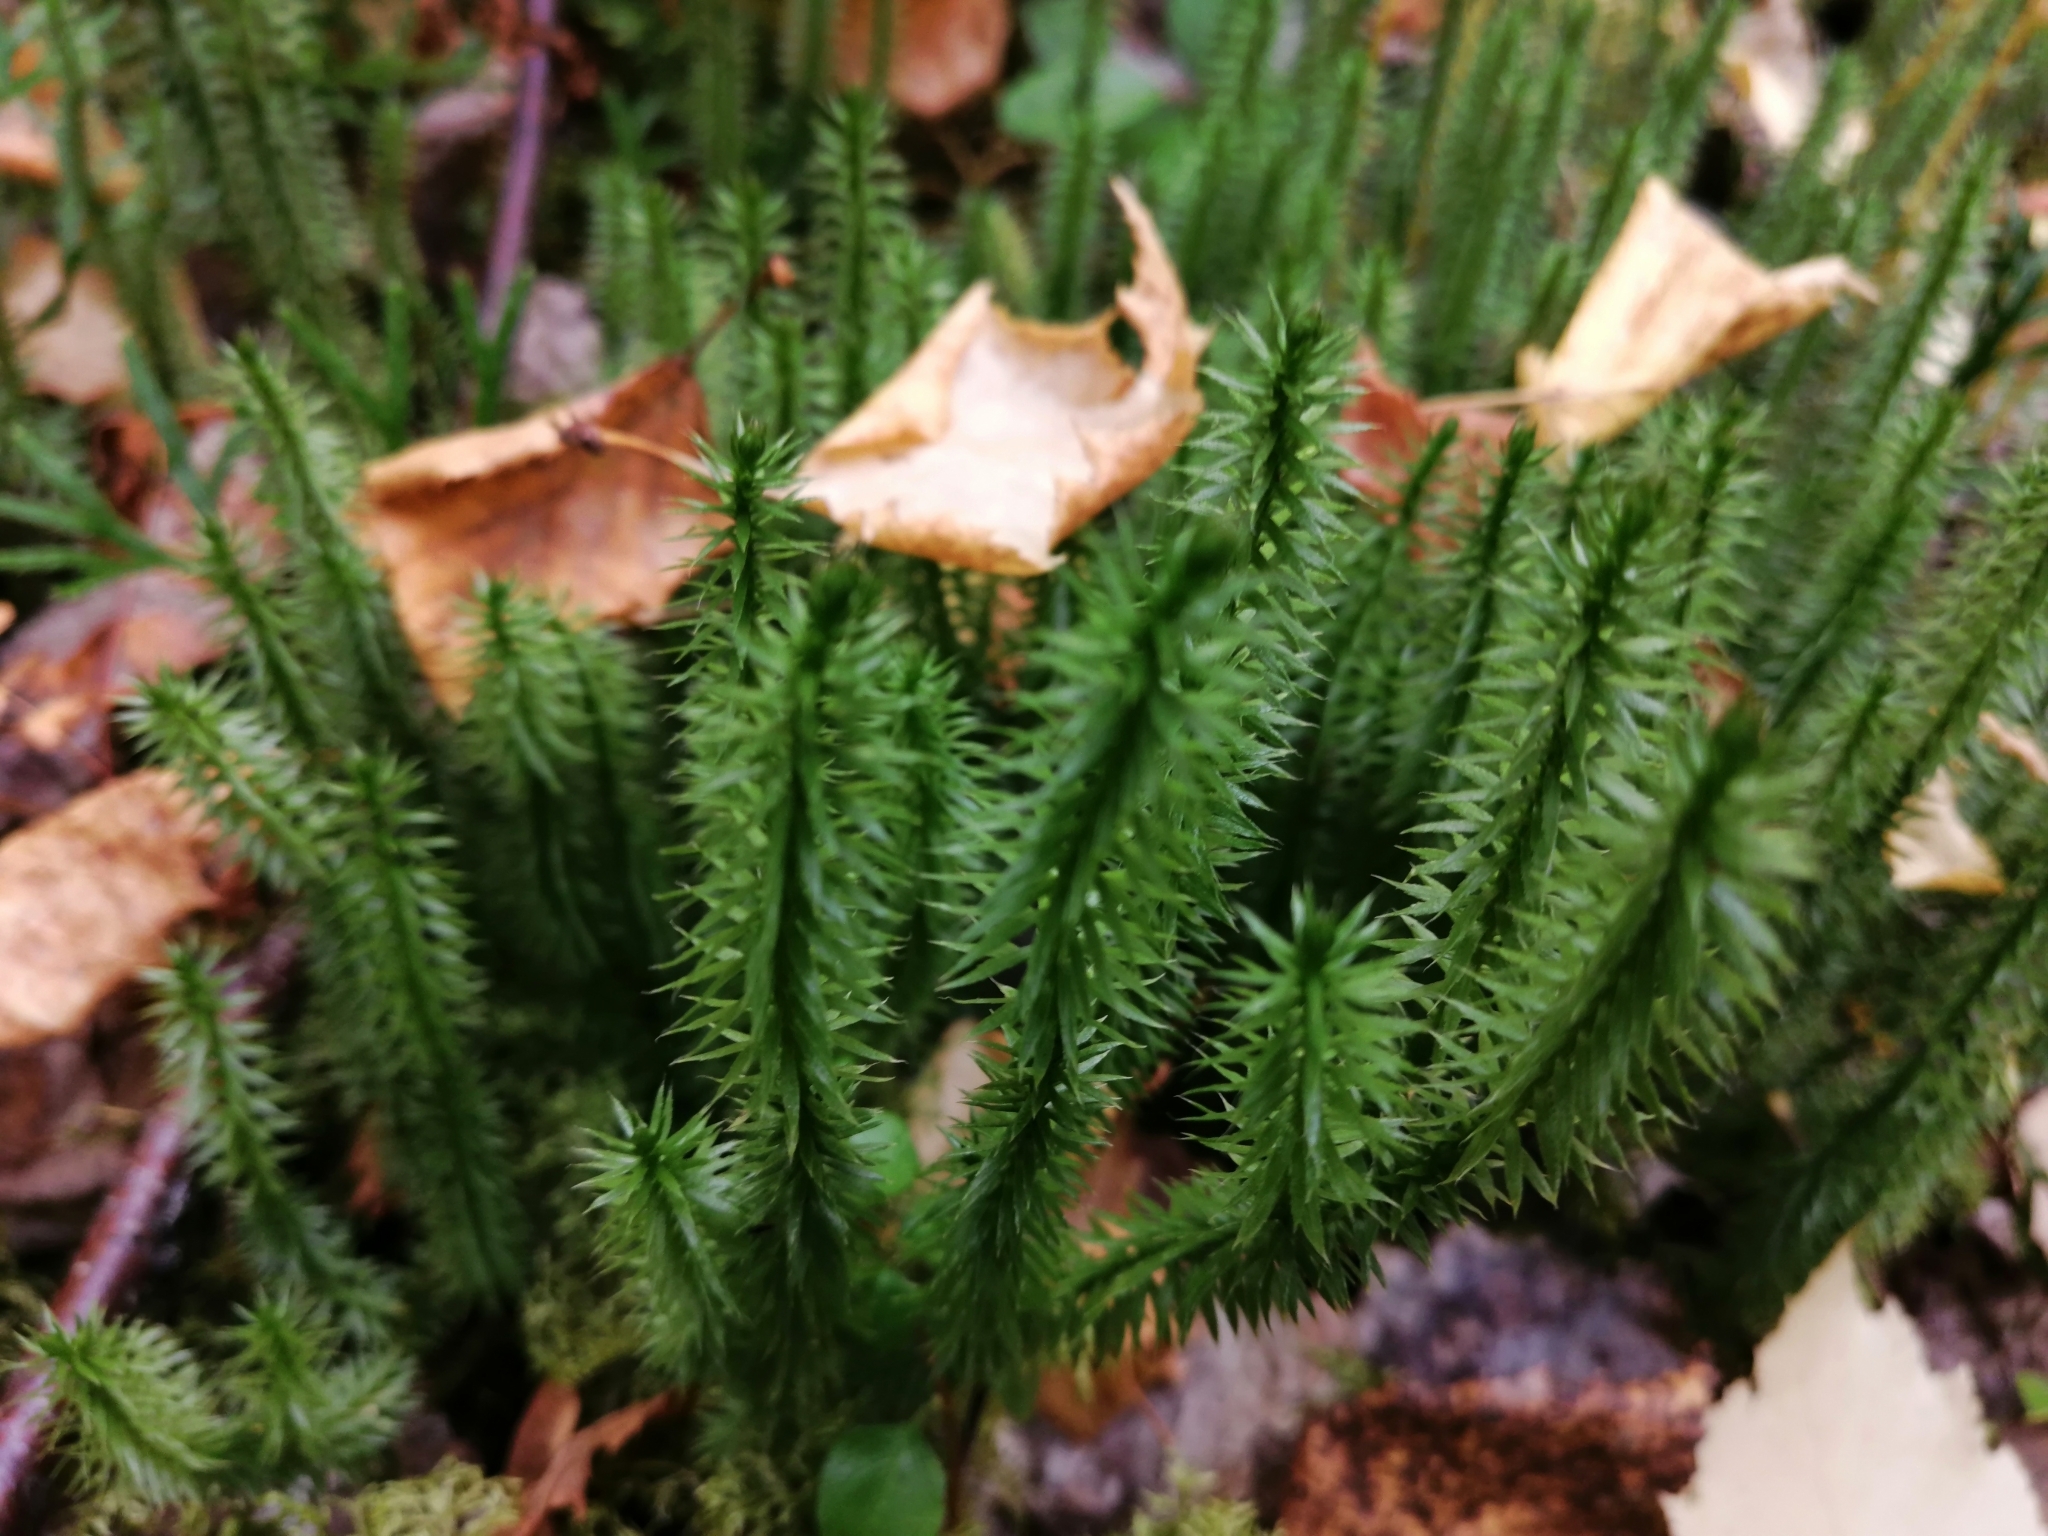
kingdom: Plantae
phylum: Tracheophyta
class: Lycopodiopsida
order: Lycopodiales
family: Lycopodiaceae
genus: Spinulum
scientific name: Spinulum annotinum
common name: Interrupted club-moss
